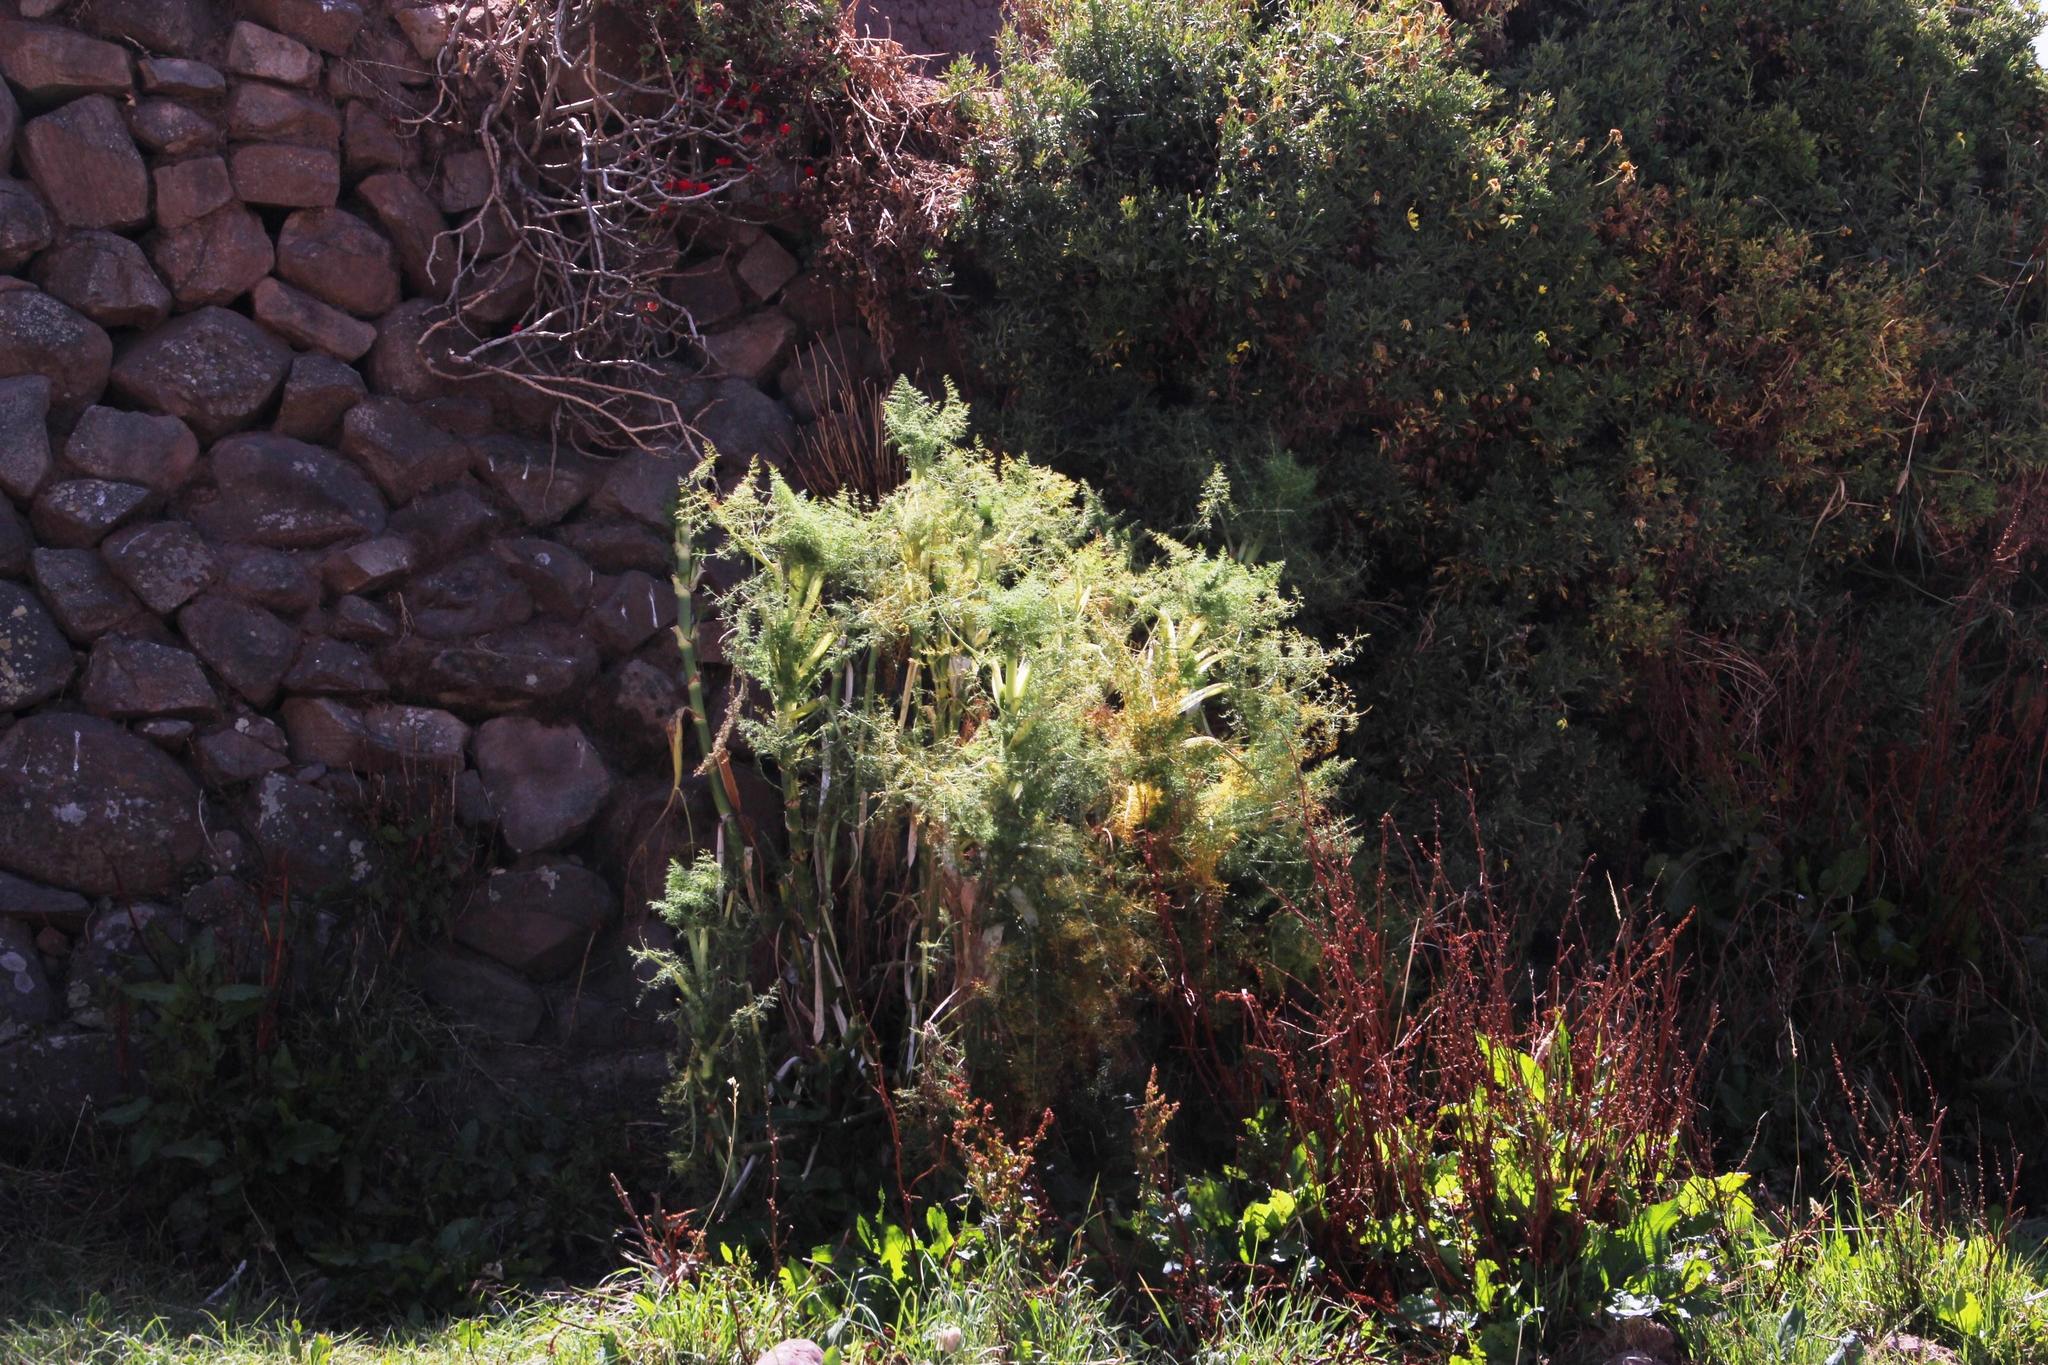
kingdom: Plantae
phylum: Tracheophyta
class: Magnoliopsida
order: Apiales
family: Apiaceae
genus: Foeniculum
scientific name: Foeniculum vulgare
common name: Fennel
